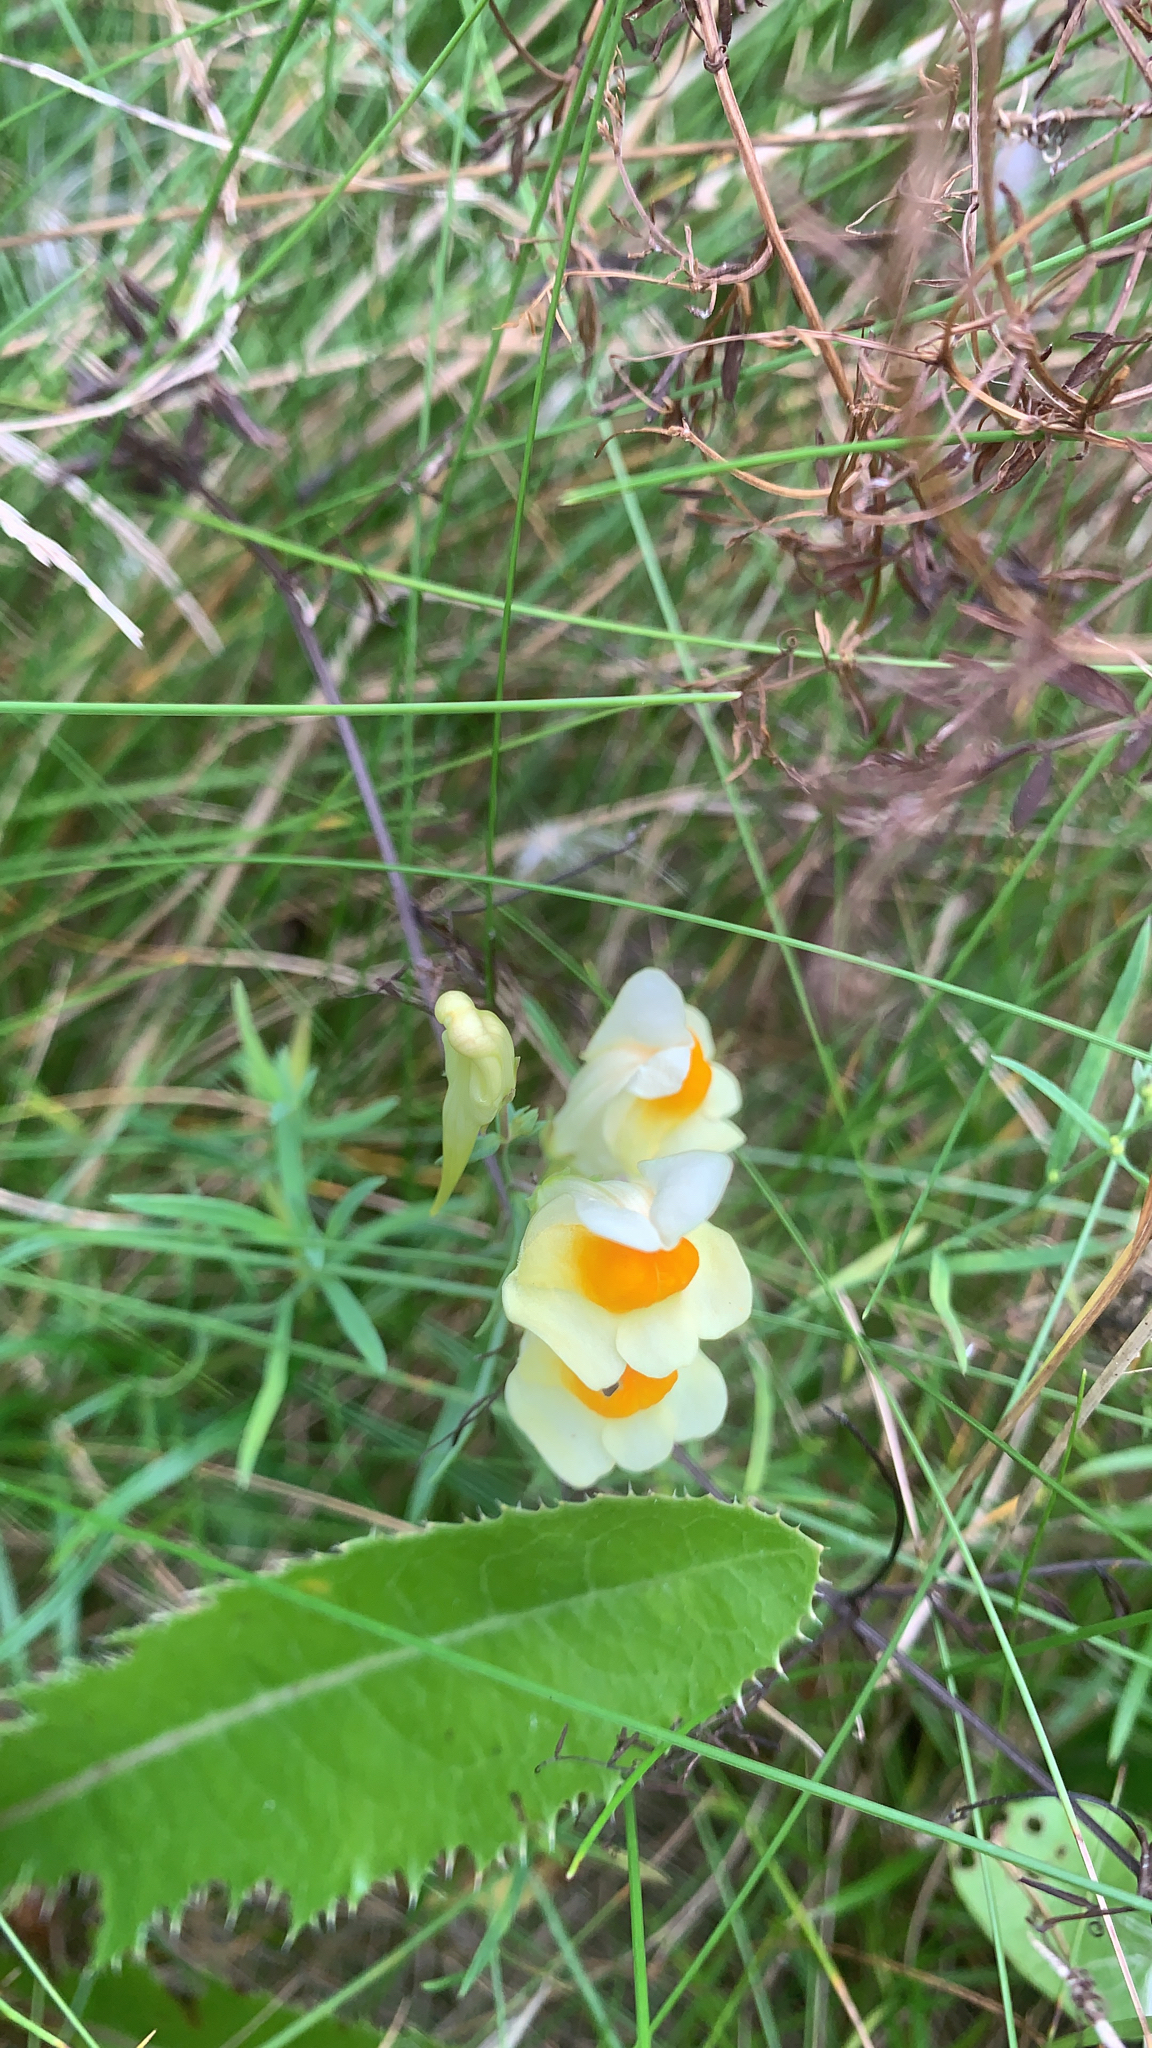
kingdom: Plantae
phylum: Tracheophyta
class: Magnoliopsida
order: Lamiales
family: Plantaginaceae
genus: Linaria
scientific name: Linaria vulgaris
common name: Butter and eggs
